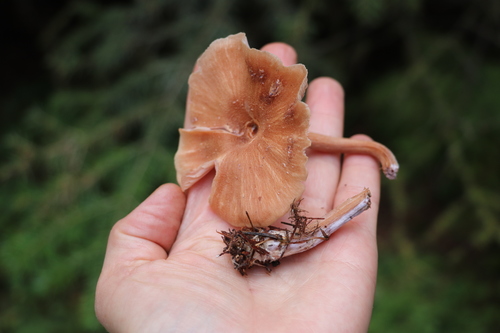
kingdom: Fungi
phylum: Basidiomycota
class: Agaricomycetes
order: Agaricales
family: Hydnangiaceae
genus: Laccaria
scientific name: Laccaria proxima
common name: Scurfy deceiver
